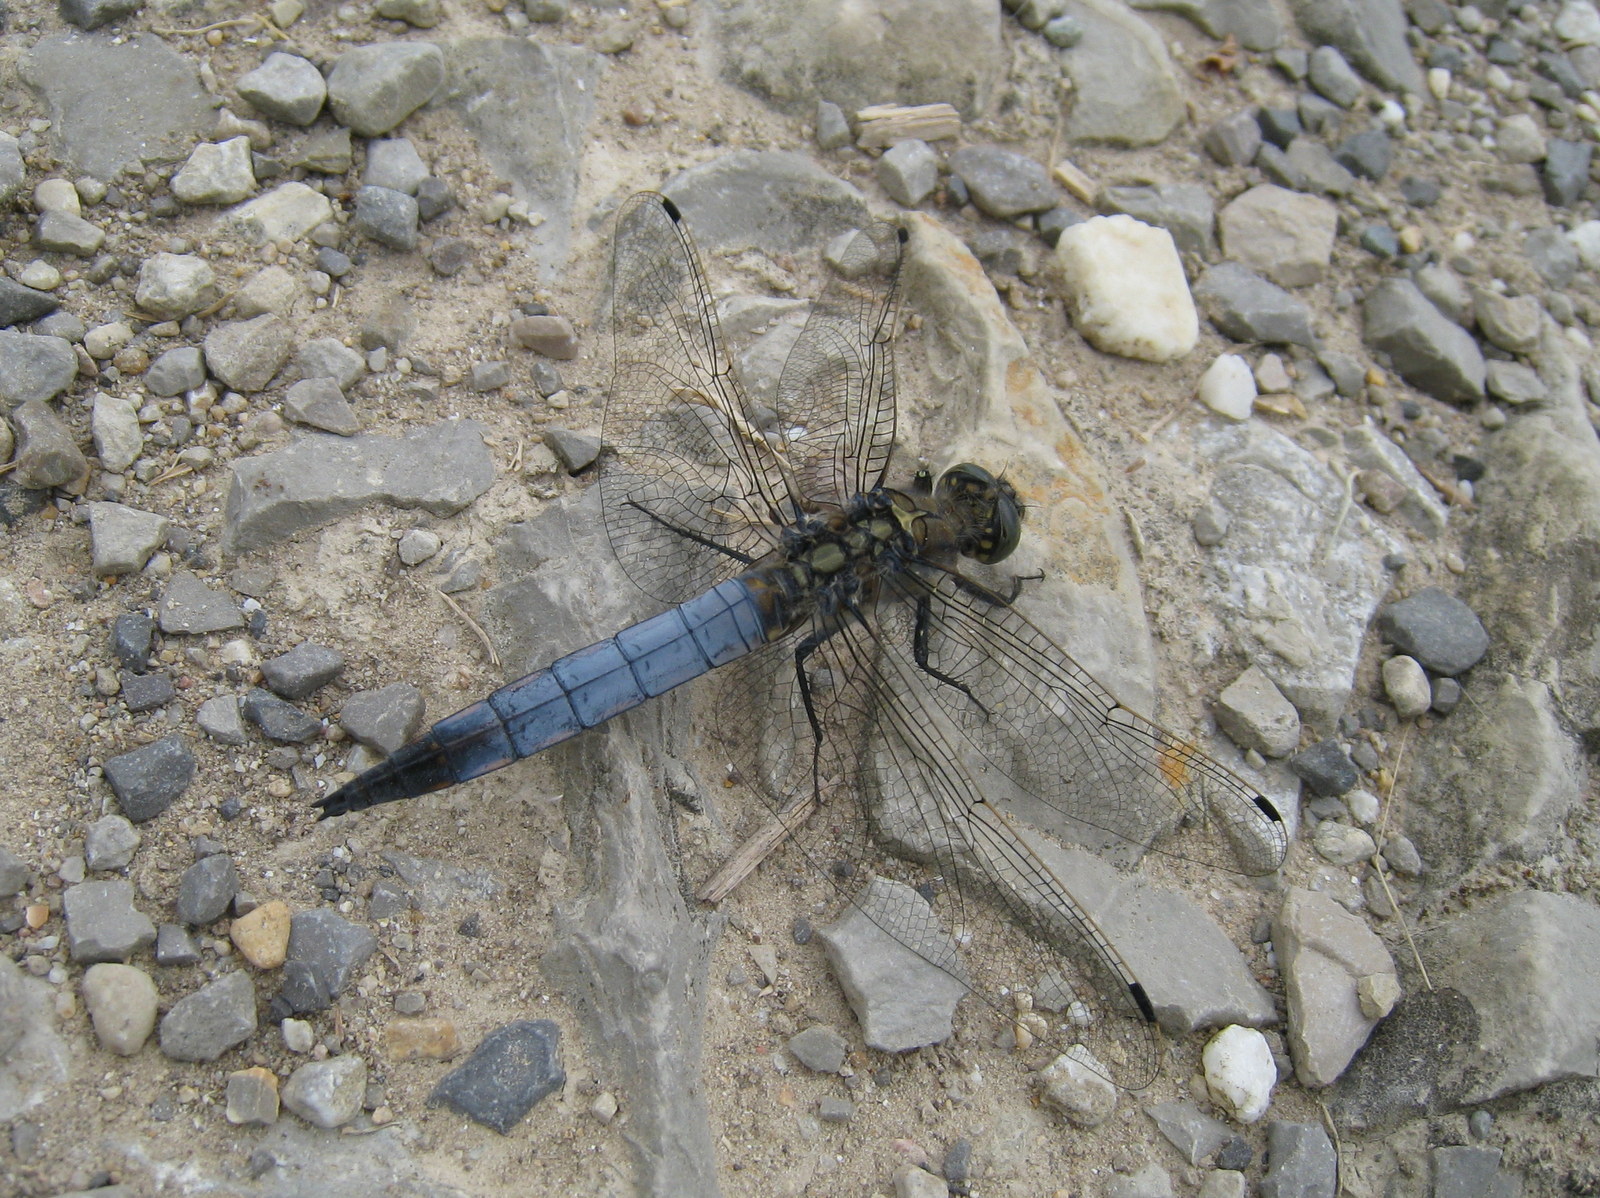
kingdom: Animalia
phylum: Arthropoda
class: Insecta
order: Odonata
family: Libellulidae
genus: Orthetrum
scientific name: Orthetrum cancellatum
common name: Black-tailed skimmer
